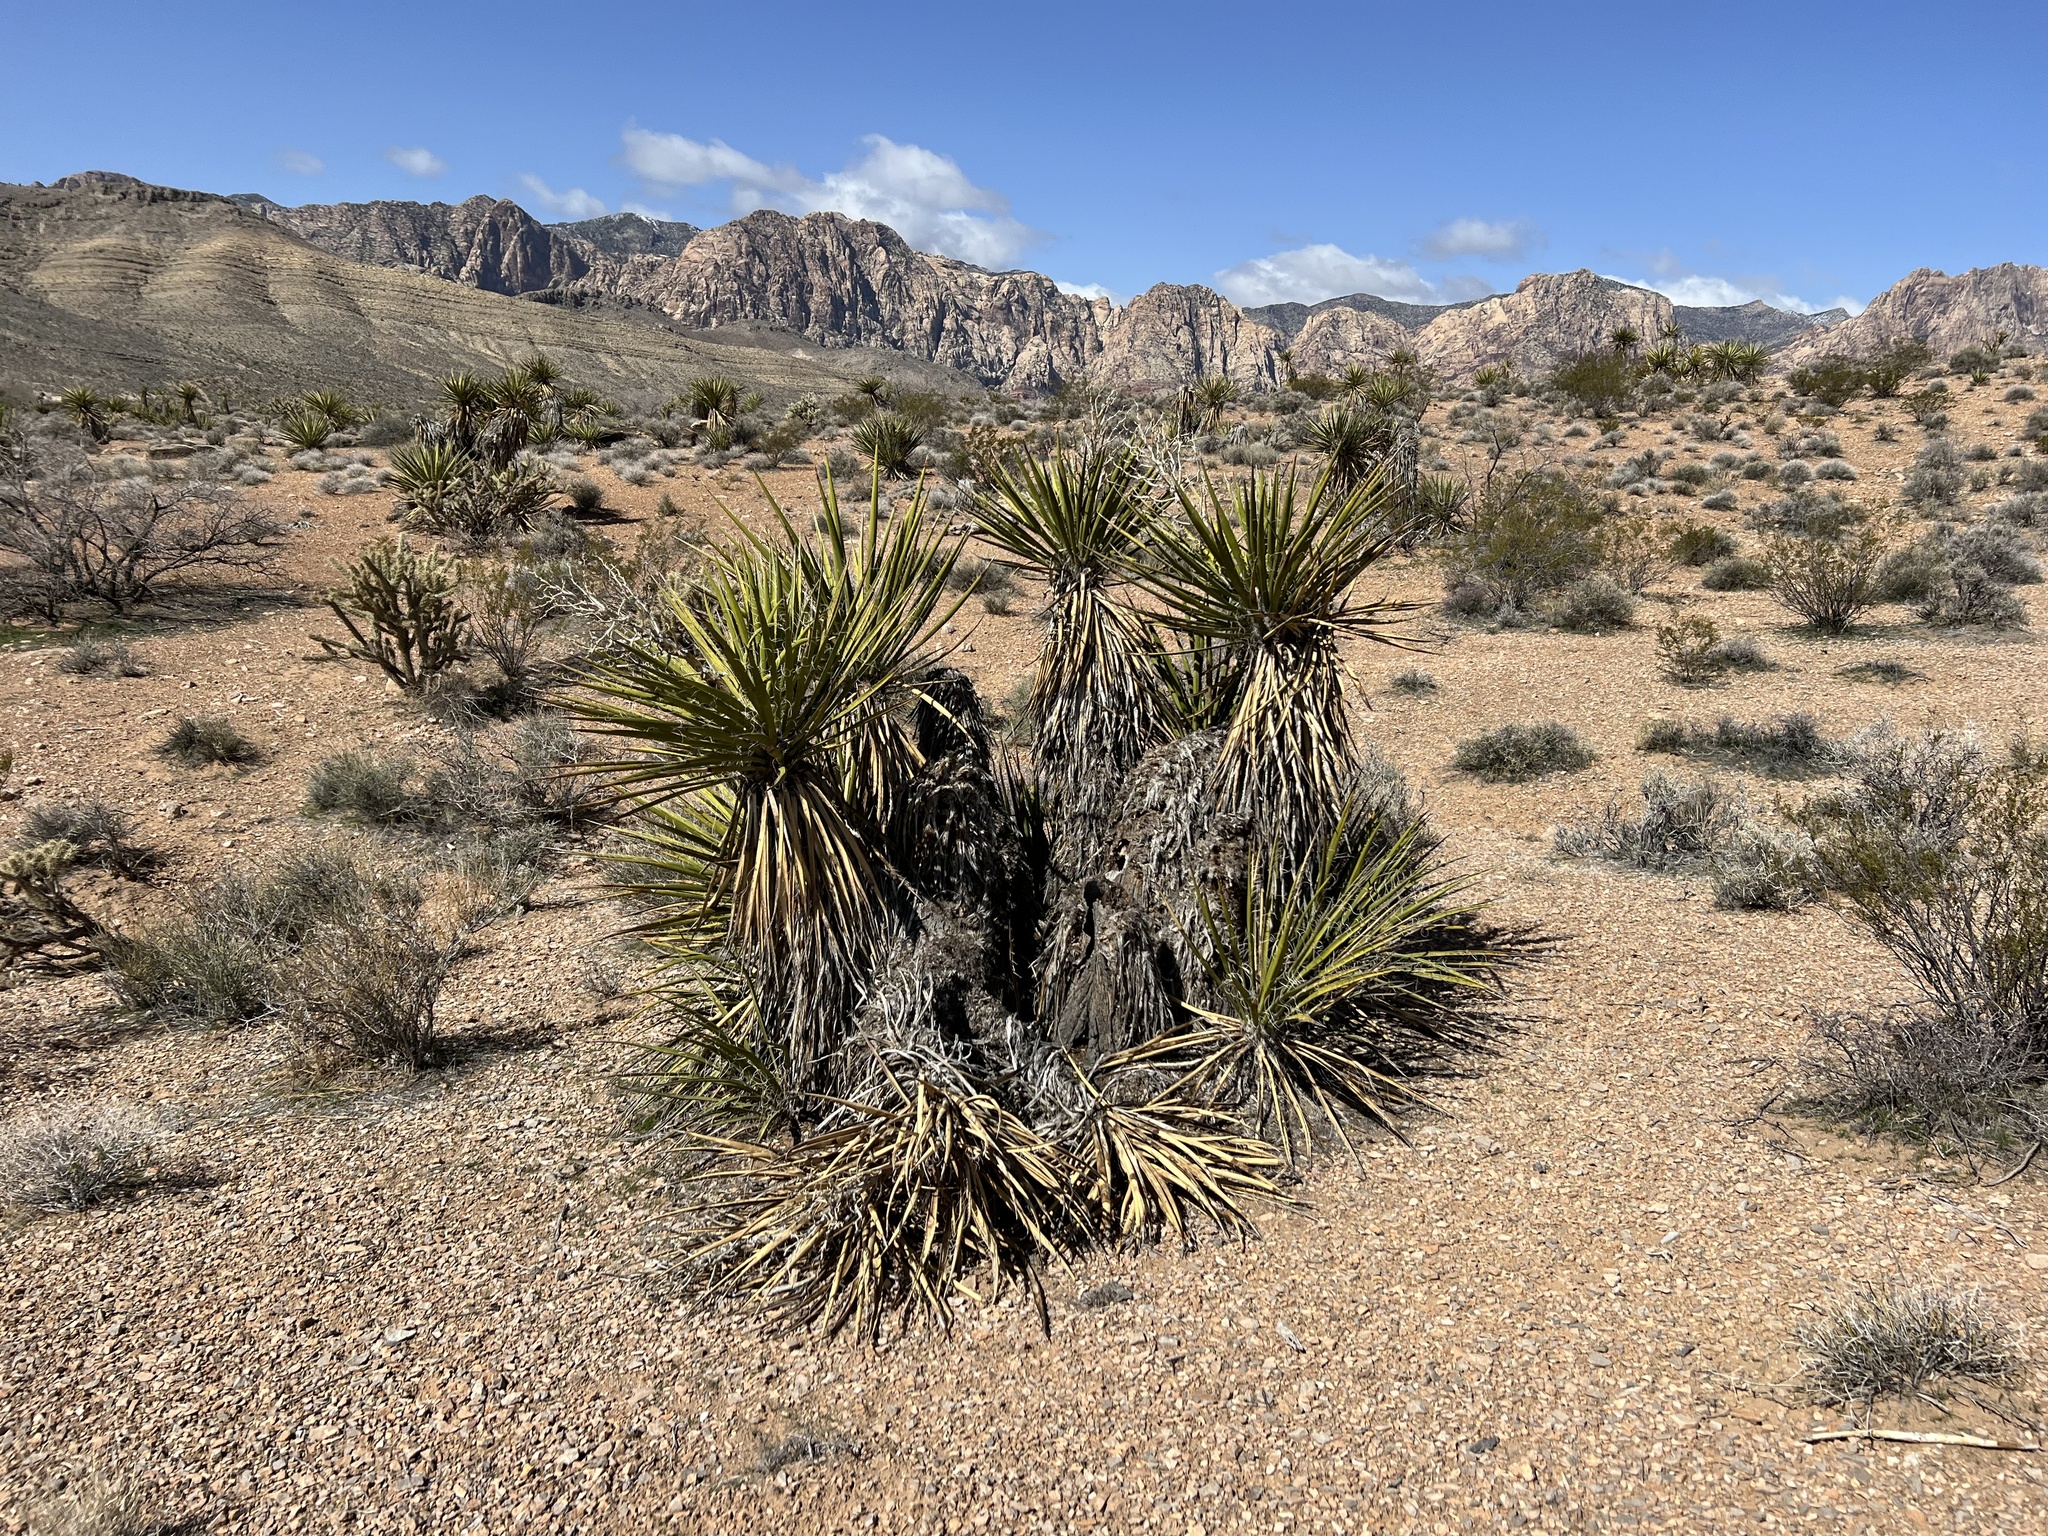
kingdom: Plantae
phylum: Tracheophyta
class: Liliopsida
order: Asparagales
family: Asparagaceae
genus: Yucca
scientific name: Yucca schidigera
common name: Mojave yucca
